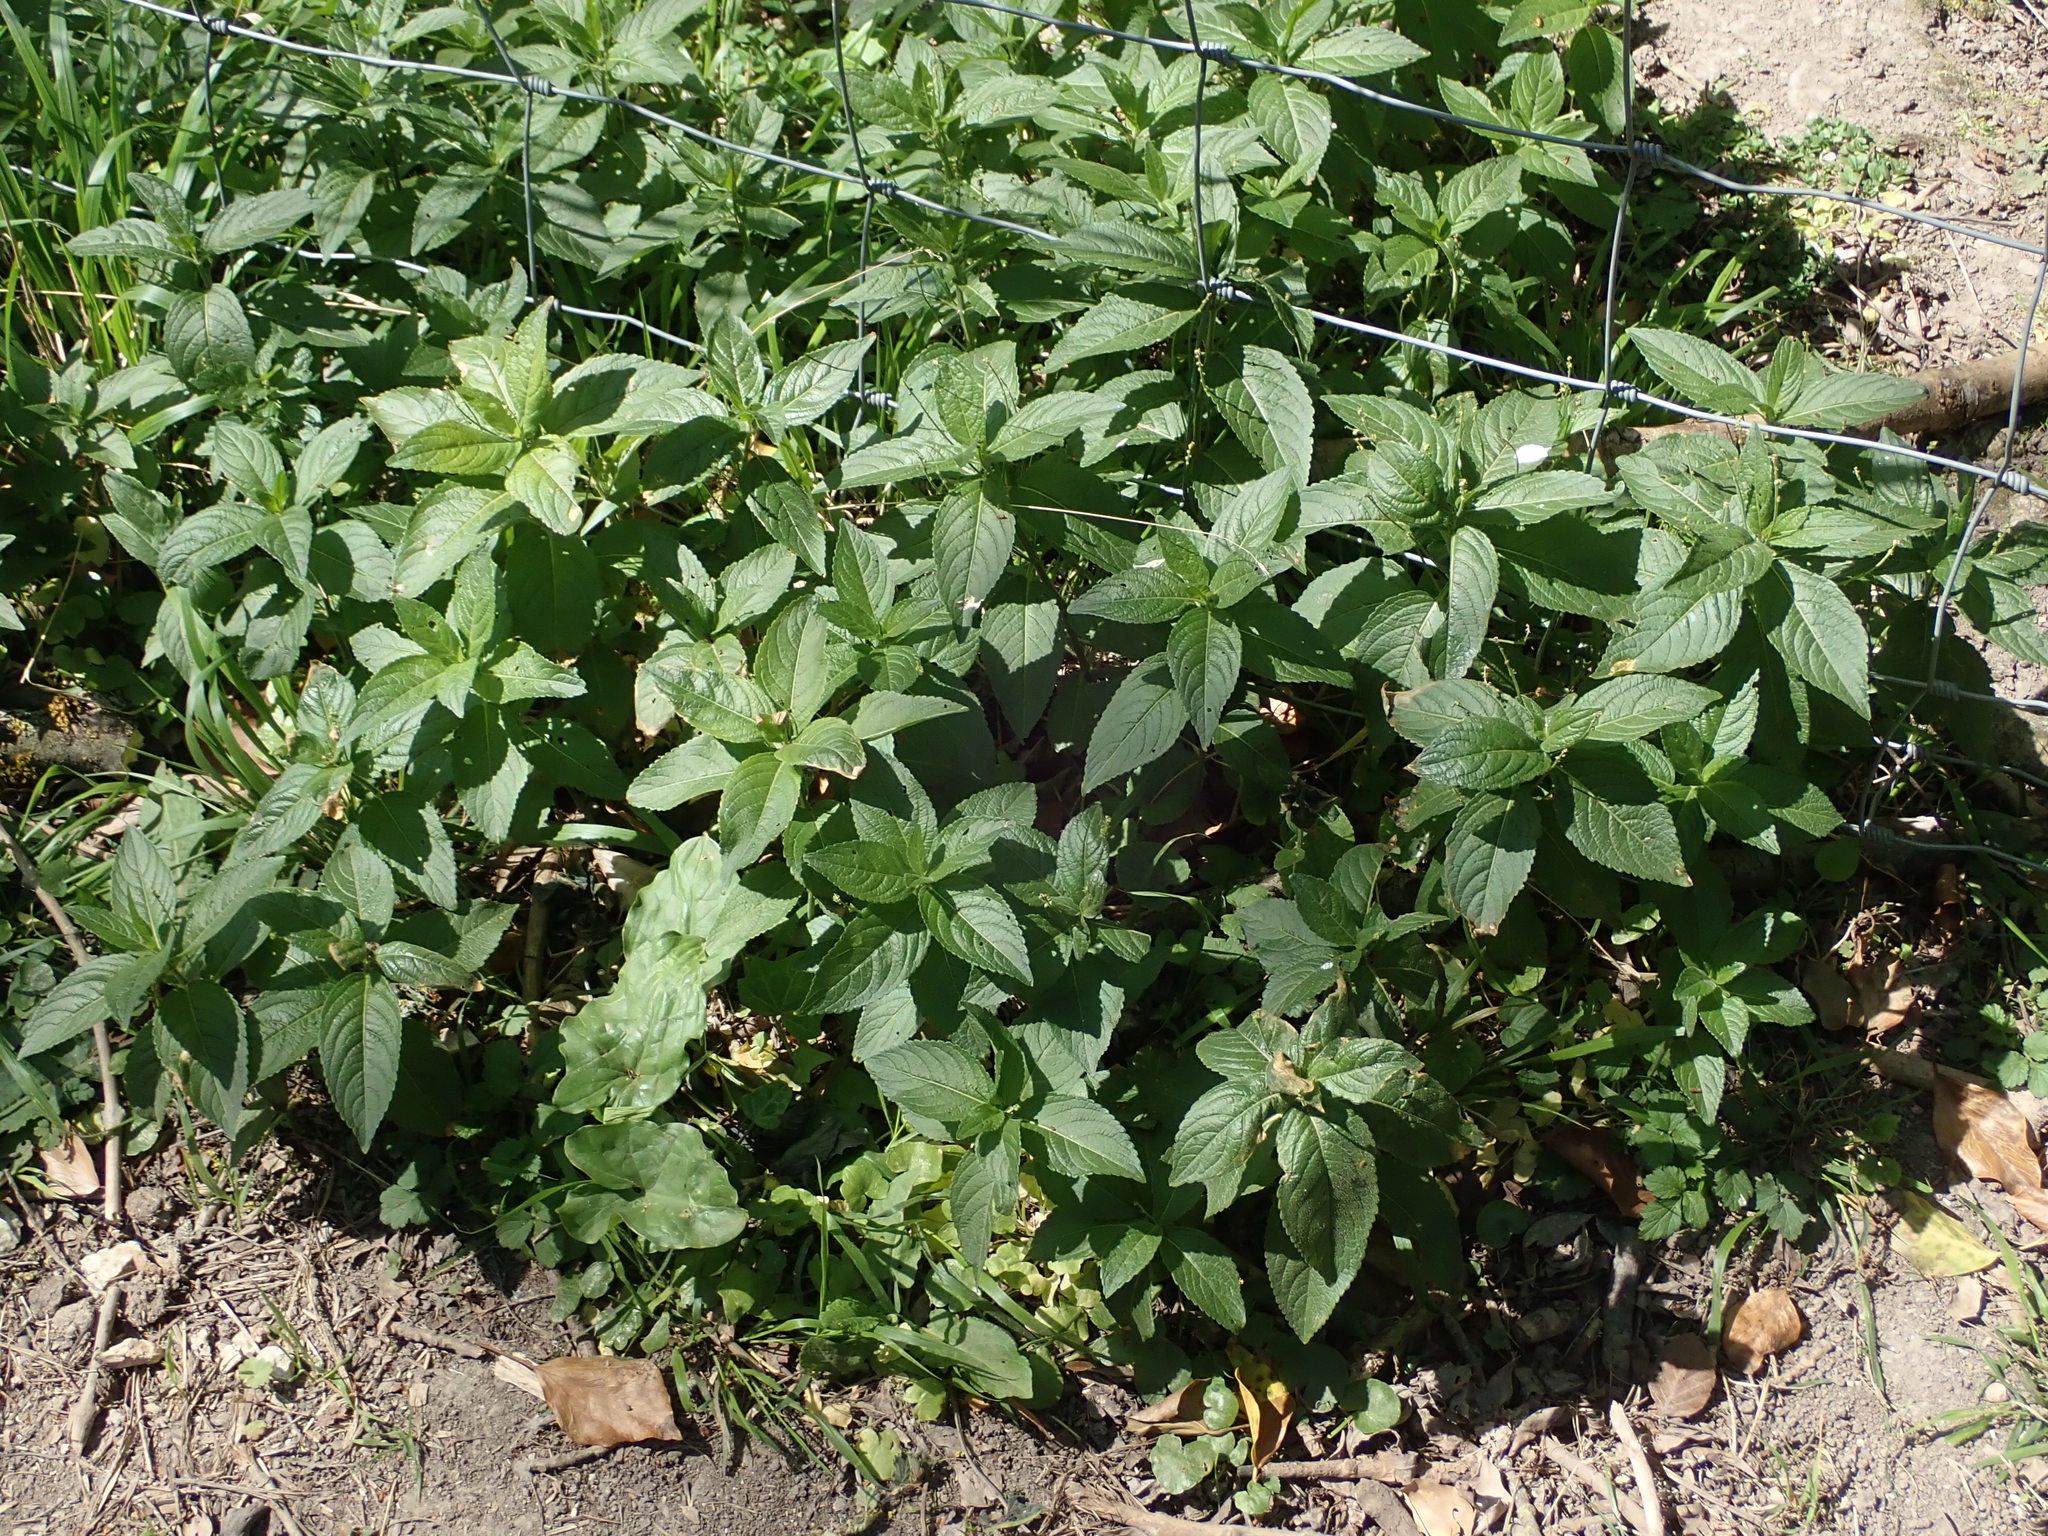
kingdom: Plantae
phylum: Tracheophyta
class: Magnoliopsida
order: Malpighiales
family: Euphorbiaceae
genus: Mercurialis
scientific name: Mercurialis perennis
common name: Dog mercury
